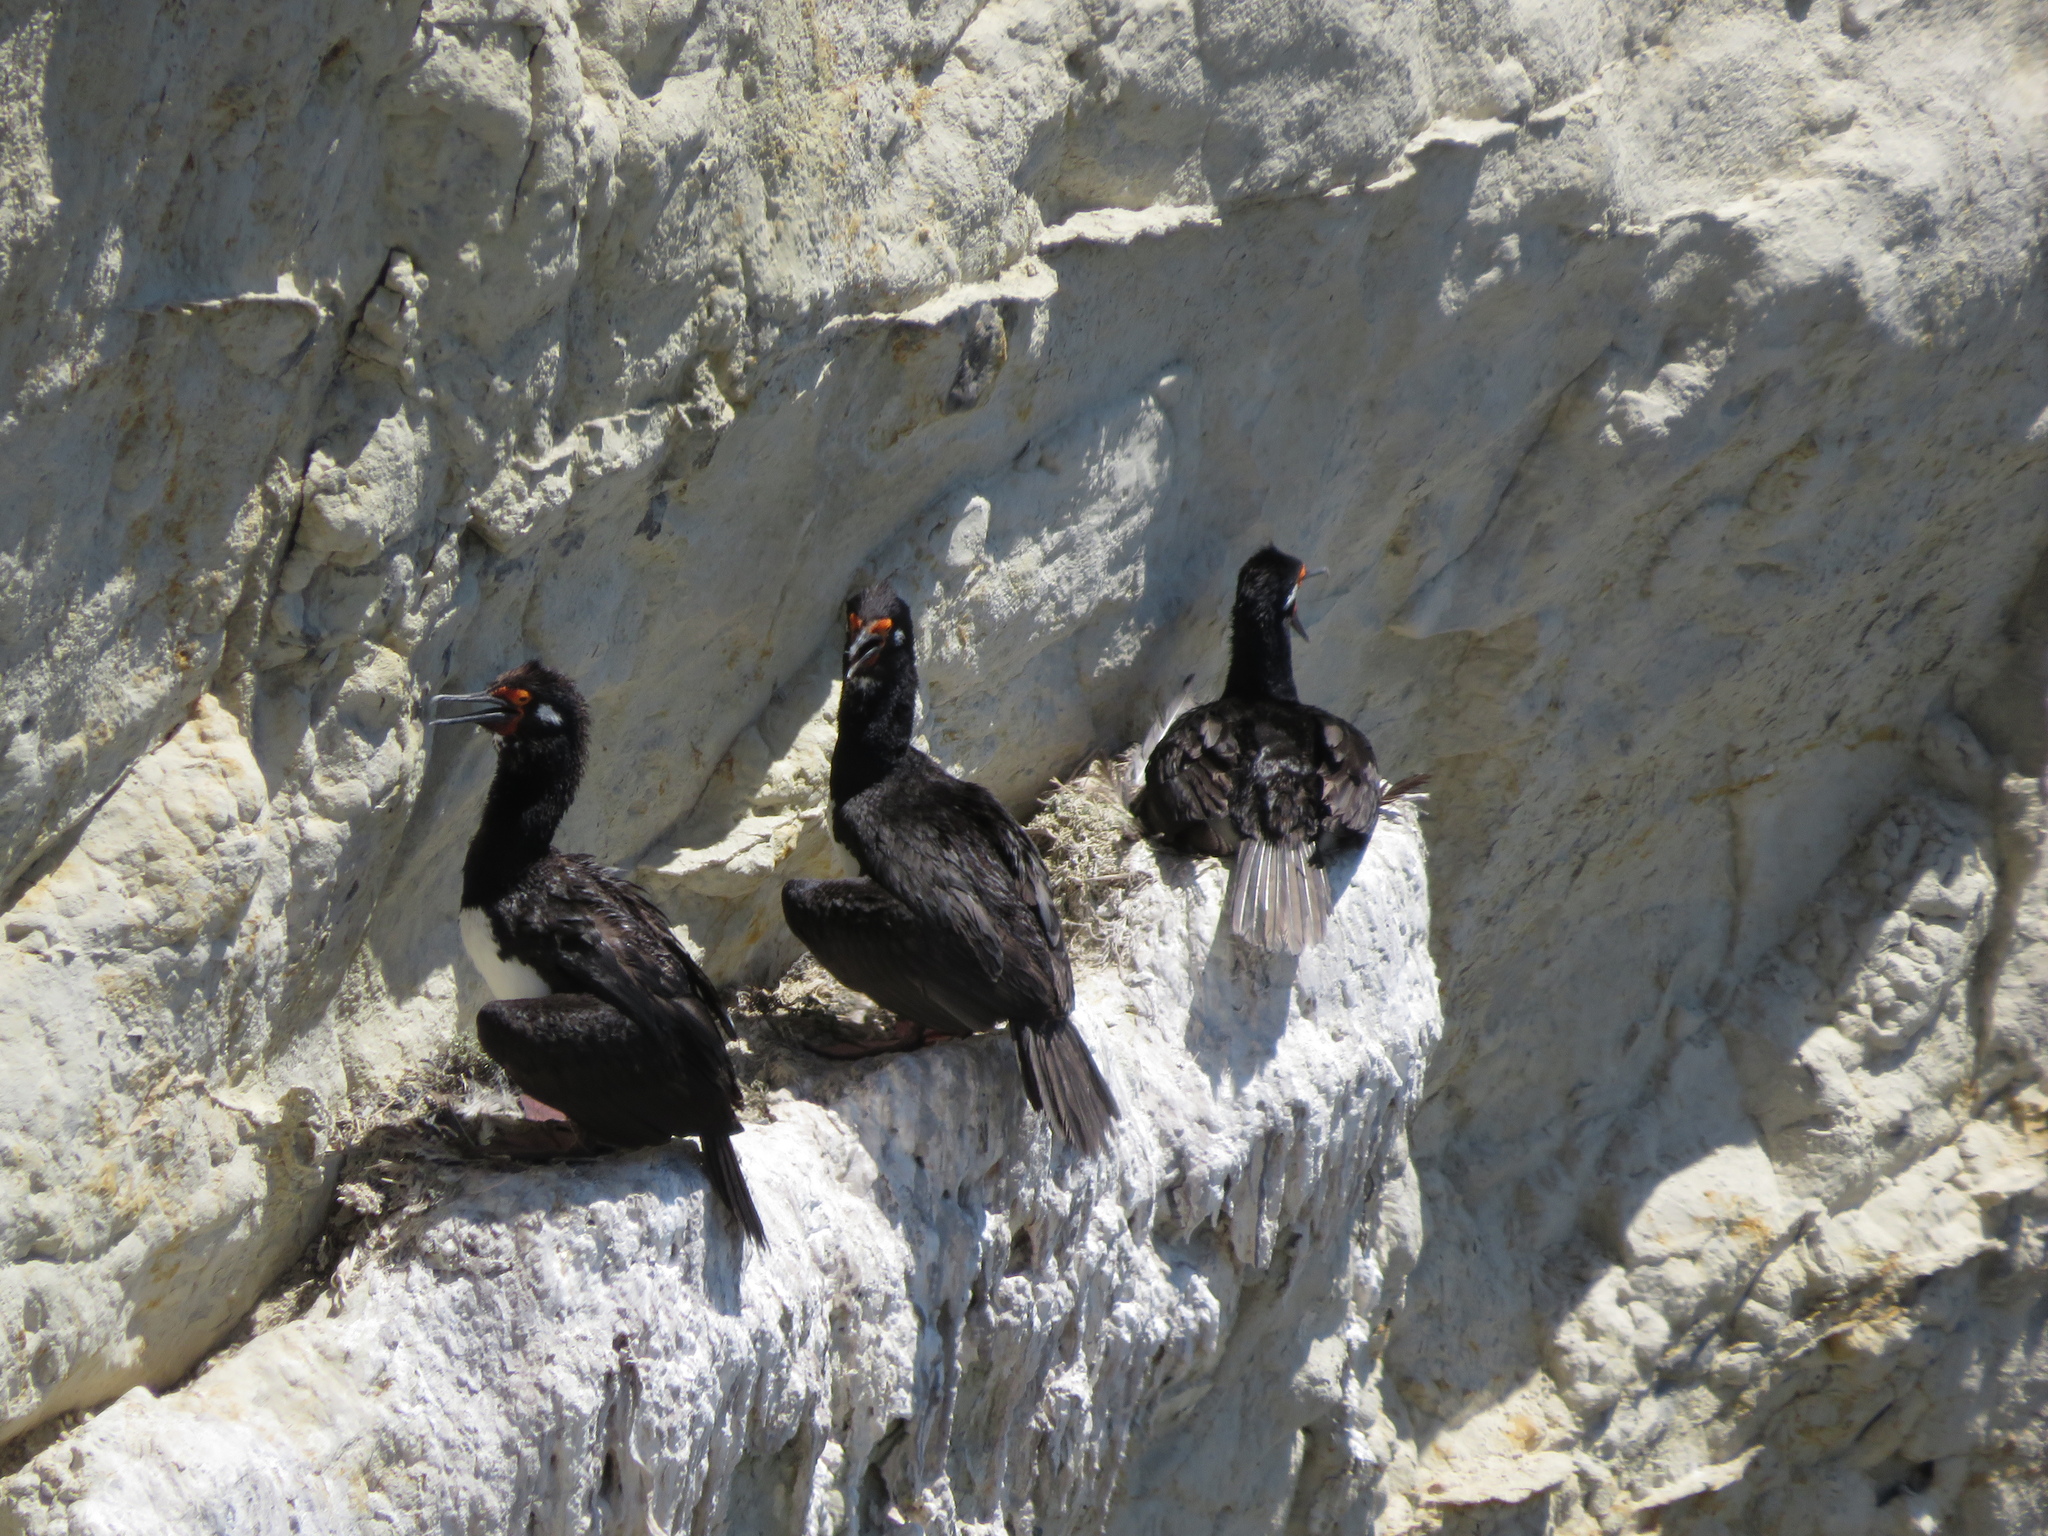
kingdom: Animalia
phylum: Chordata
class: Aves
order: Suliformes
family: Phalacrocoracidae
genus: Phalacrocorax
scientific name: Phalacrocorax magellanicus
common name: Rock shag
